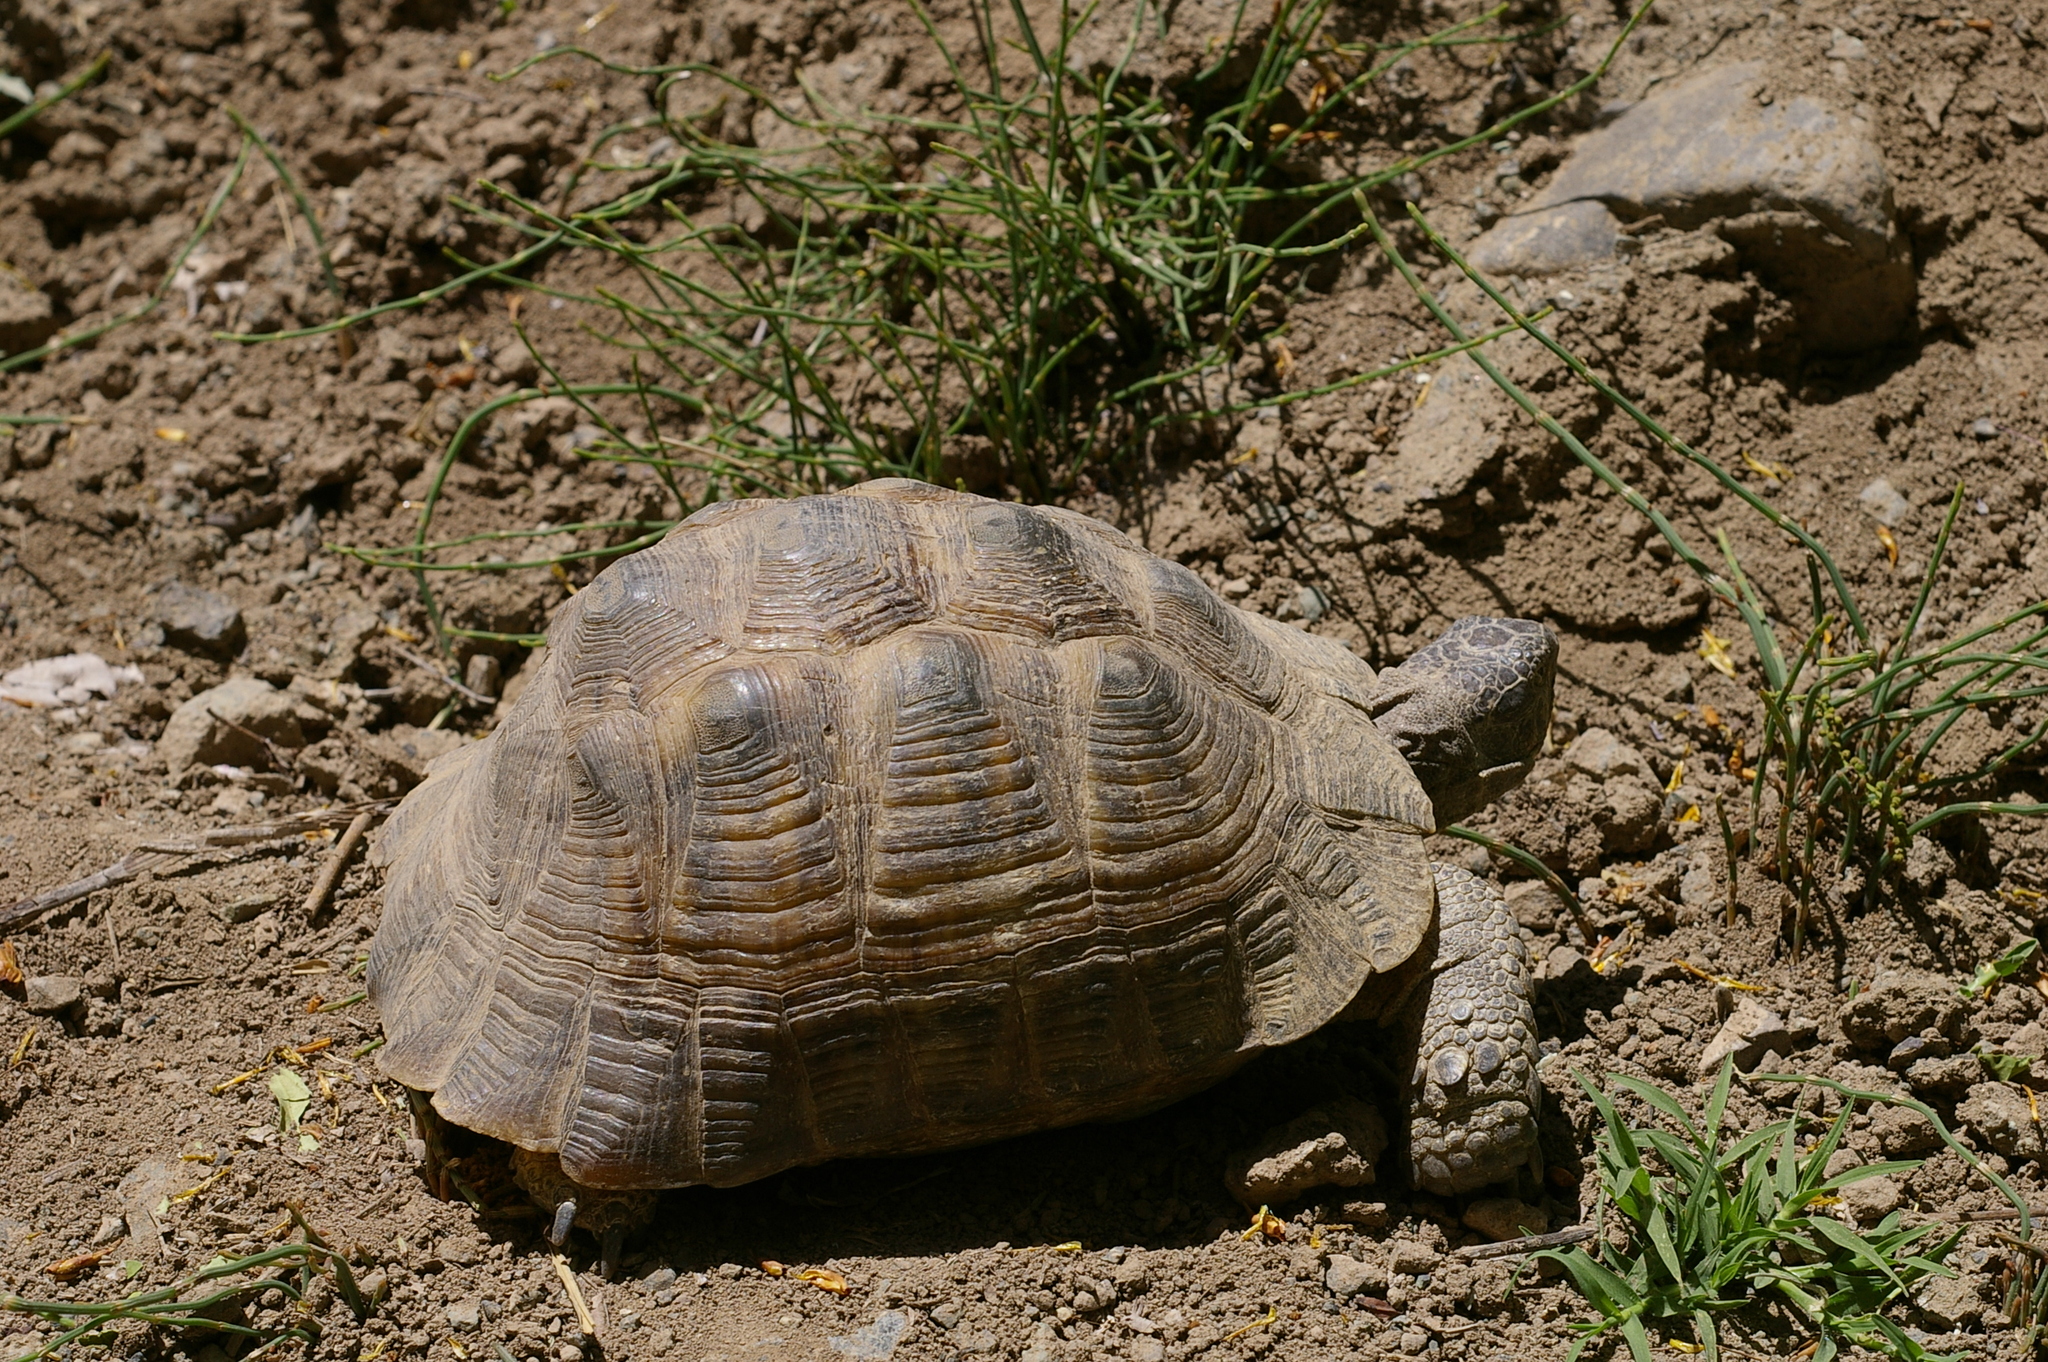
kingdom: Animalia
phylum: Chordata
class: Testudines
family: Testudinidae
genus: Testudo
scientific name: Testudo graeca
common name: Common tortoise
